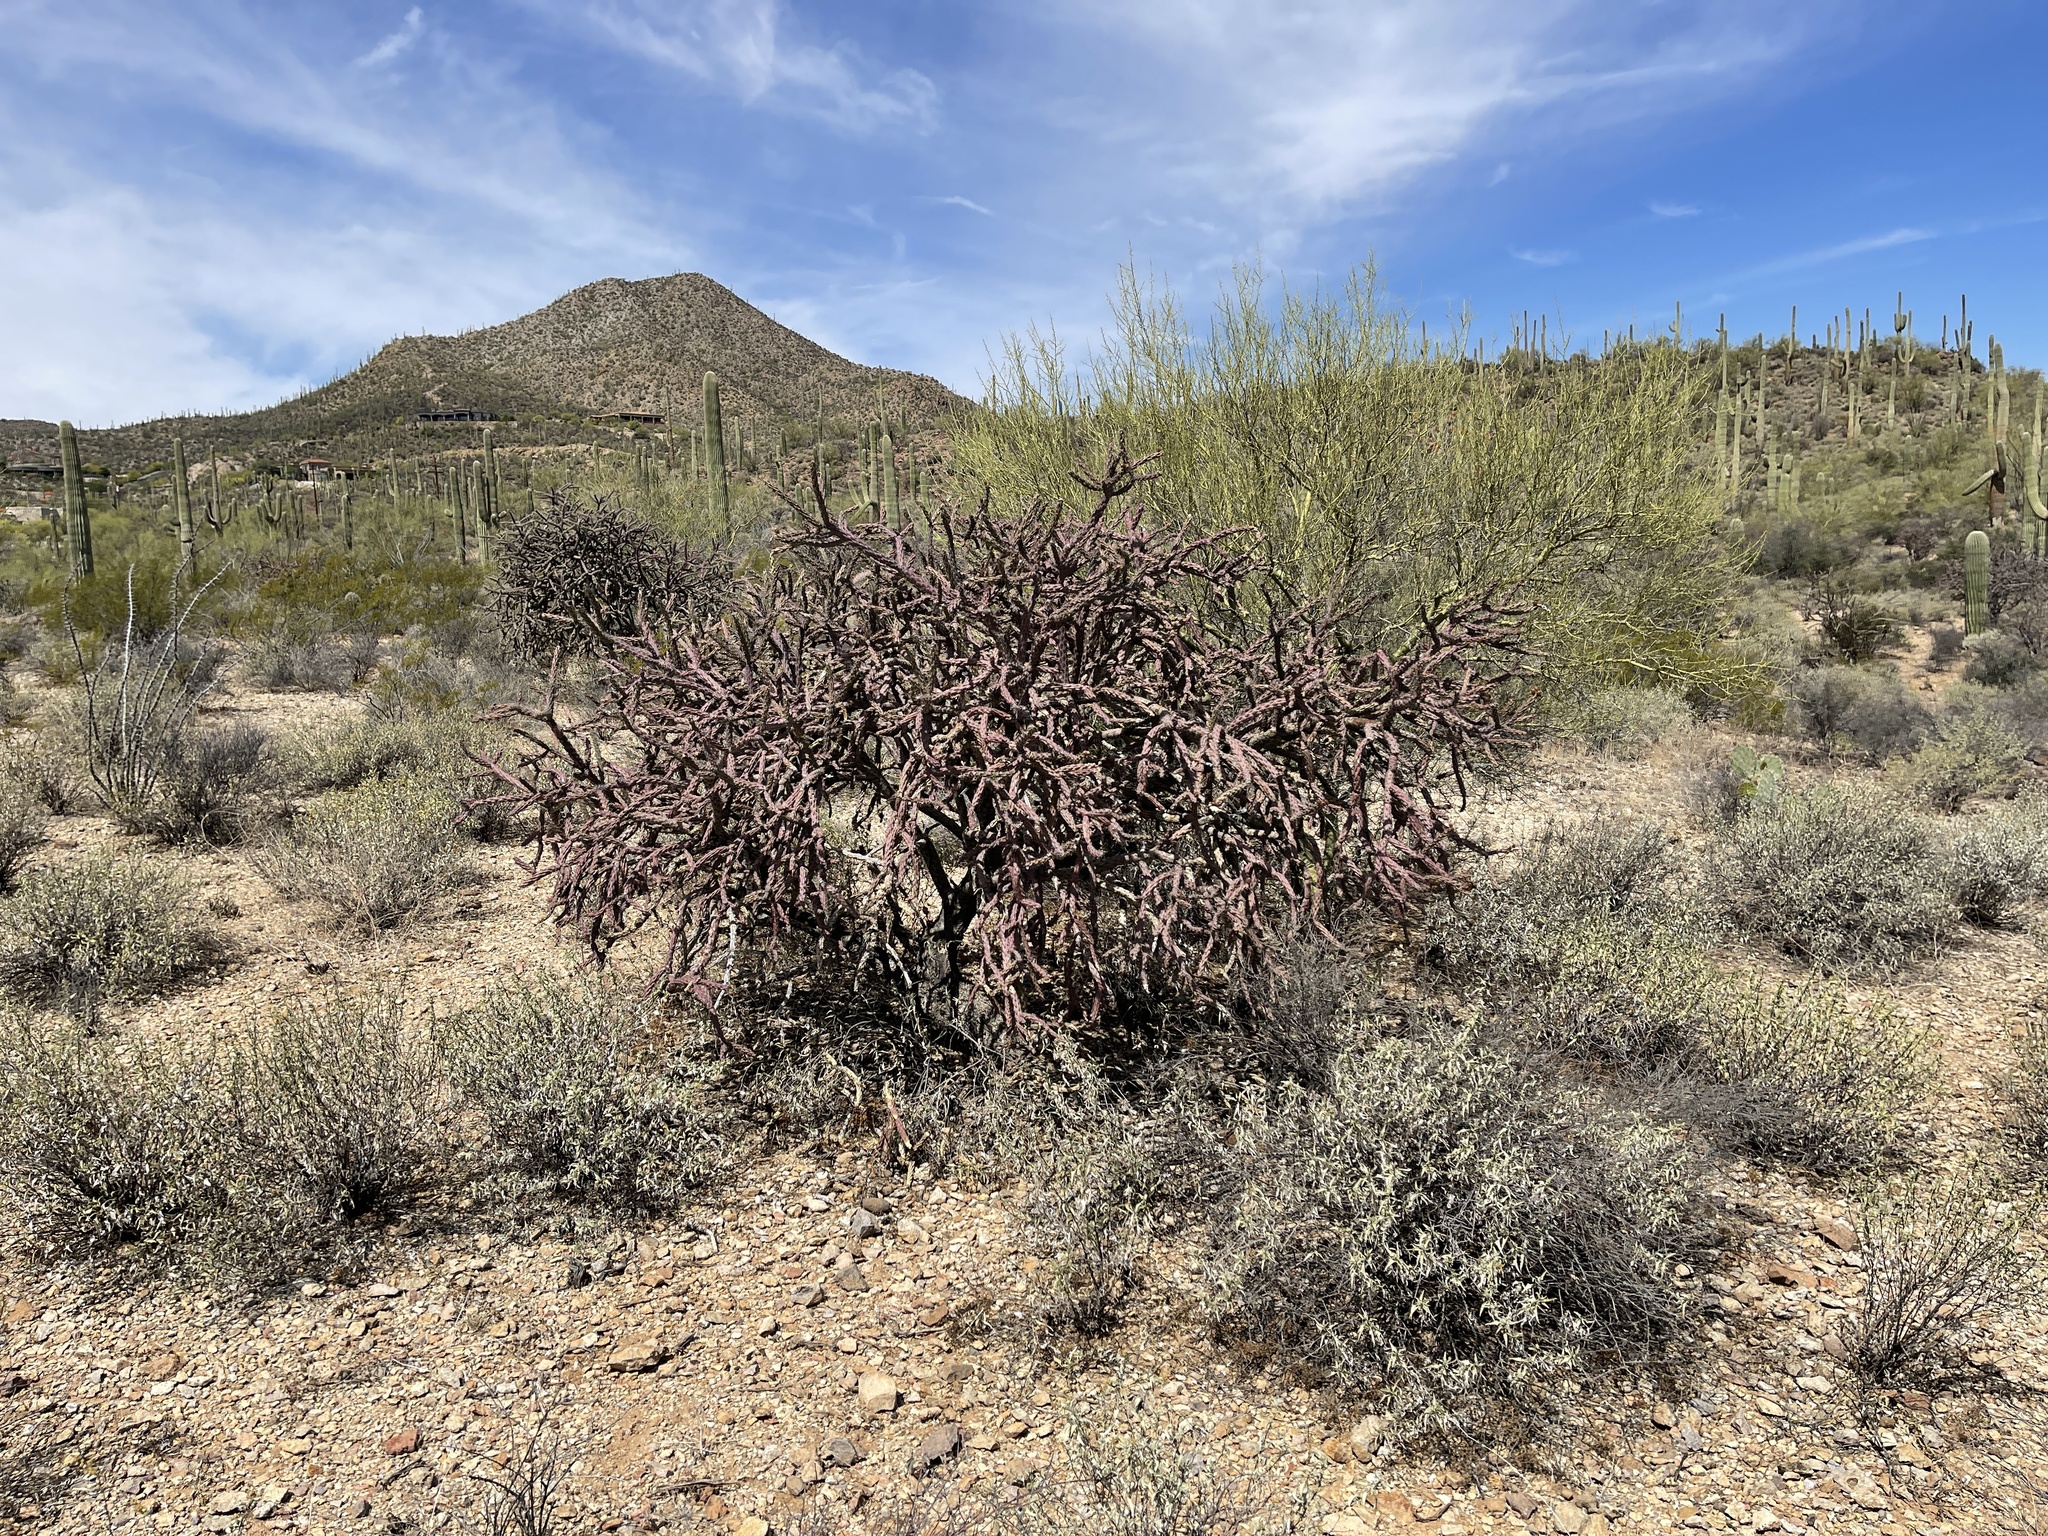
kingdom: Plantae
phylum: Tracheophyta
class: Magnoliopsida
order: Caryophyllales
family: Cactaceae
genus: Cylindropuntia
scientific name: Cylindropuntia thurberi
